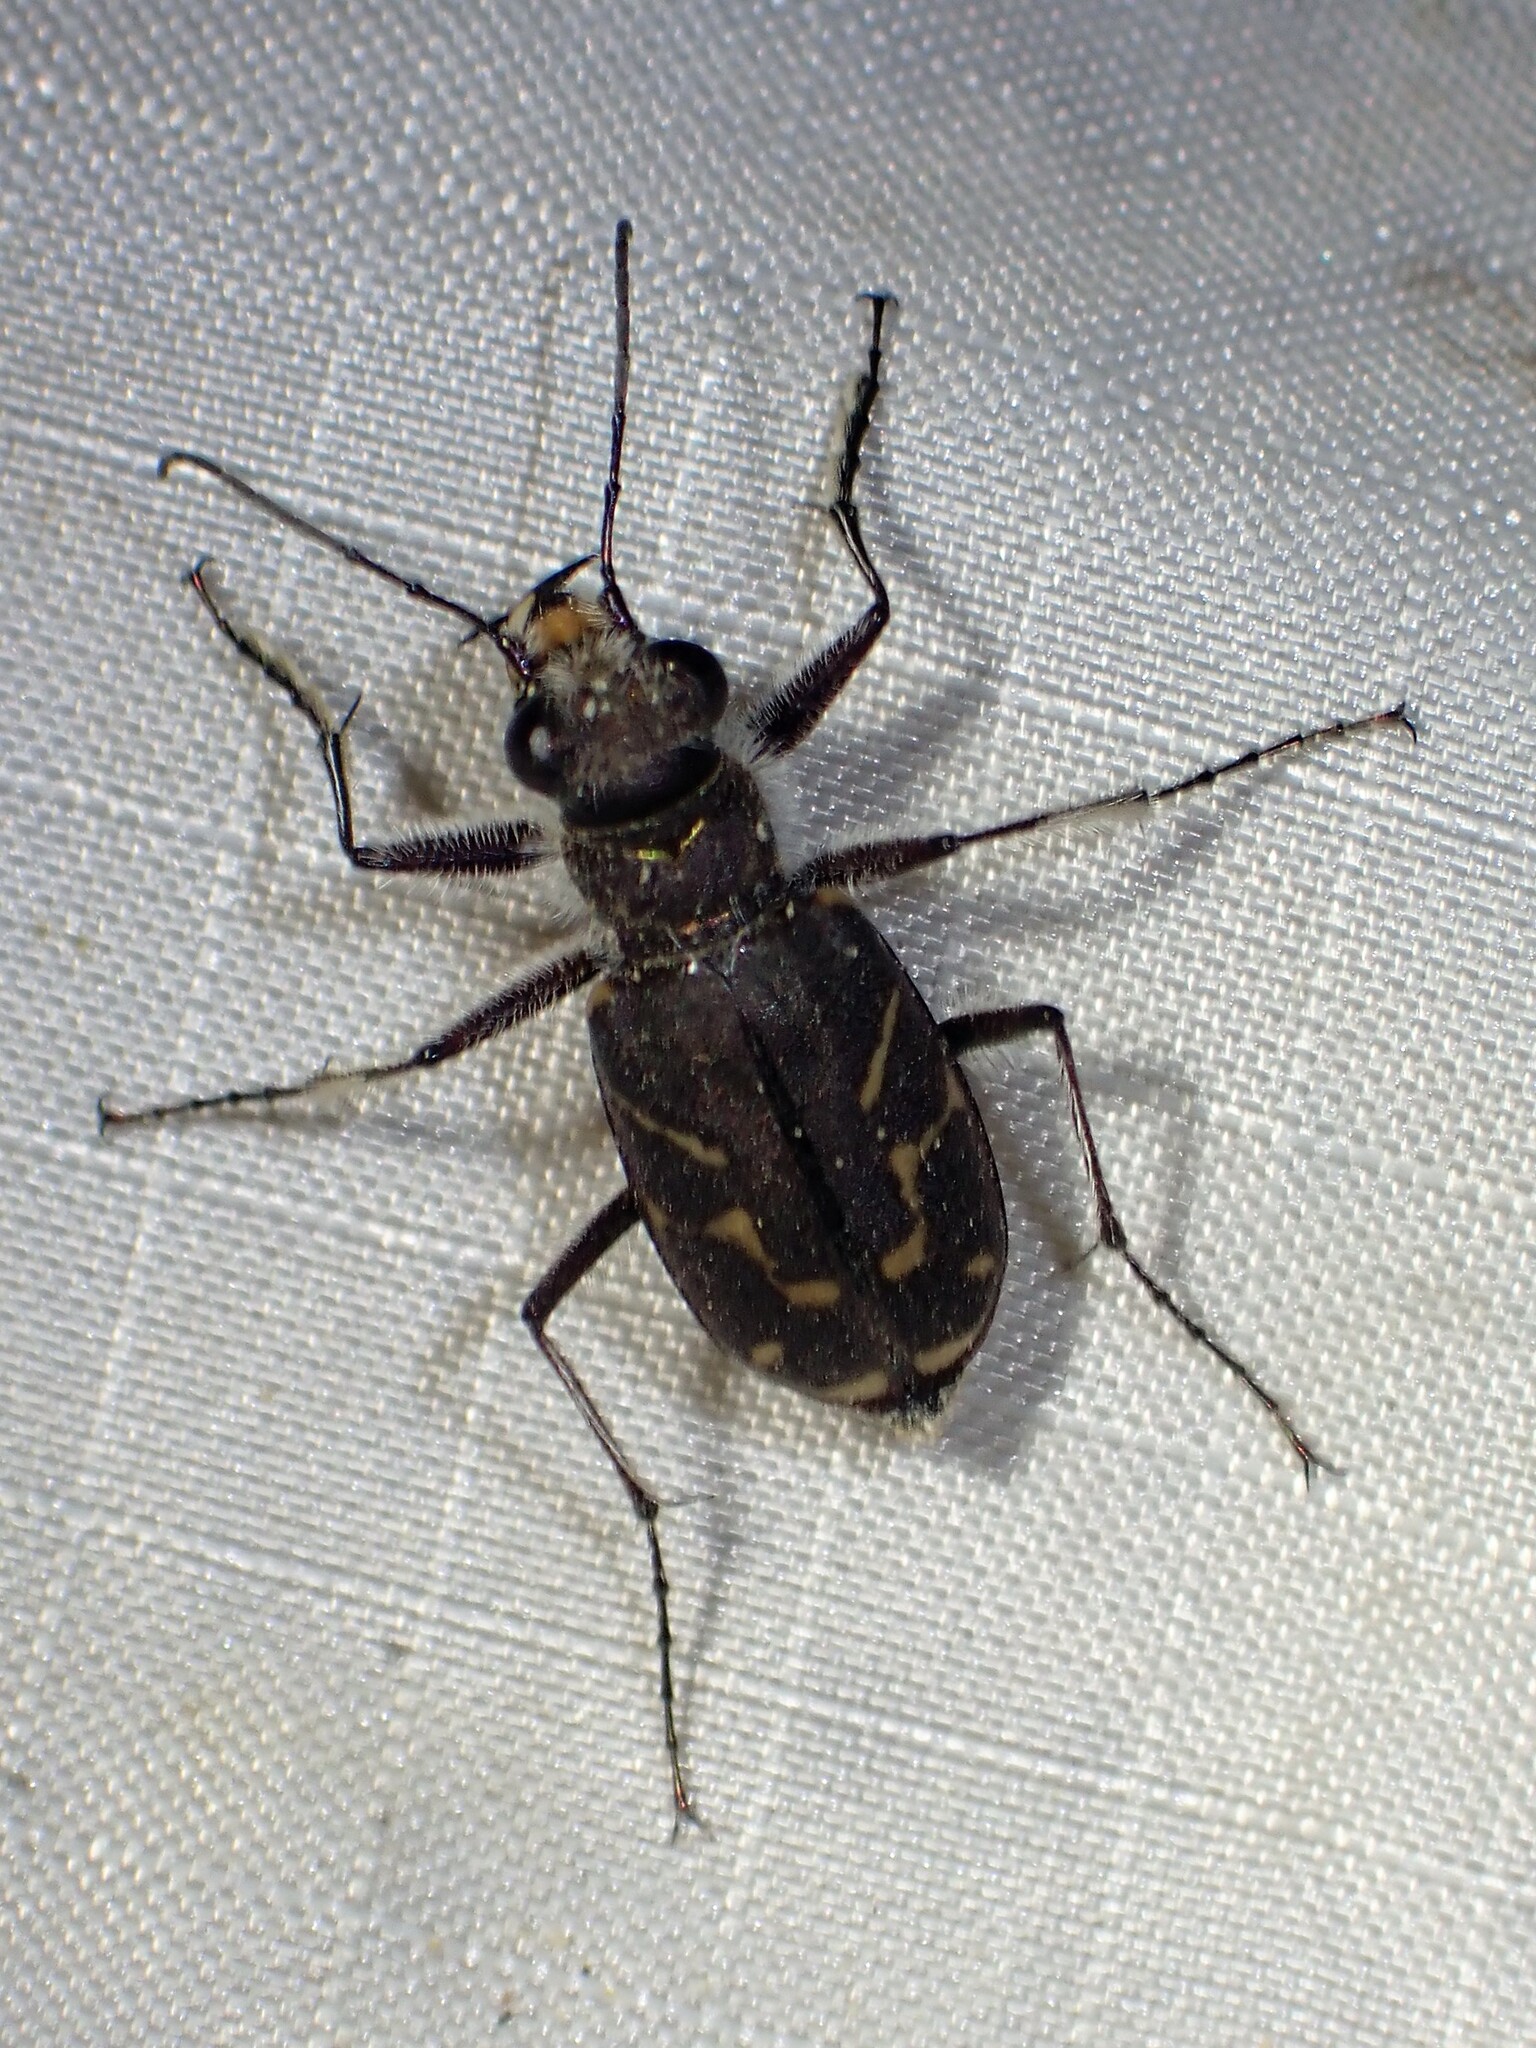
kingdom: Animalia
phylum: Arthropoda
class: Insecta
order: Coleoptera
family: Carabidae
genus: Cicindela
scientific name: Cicindela tranquebarica
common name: Oblique-lined tiger beetle
